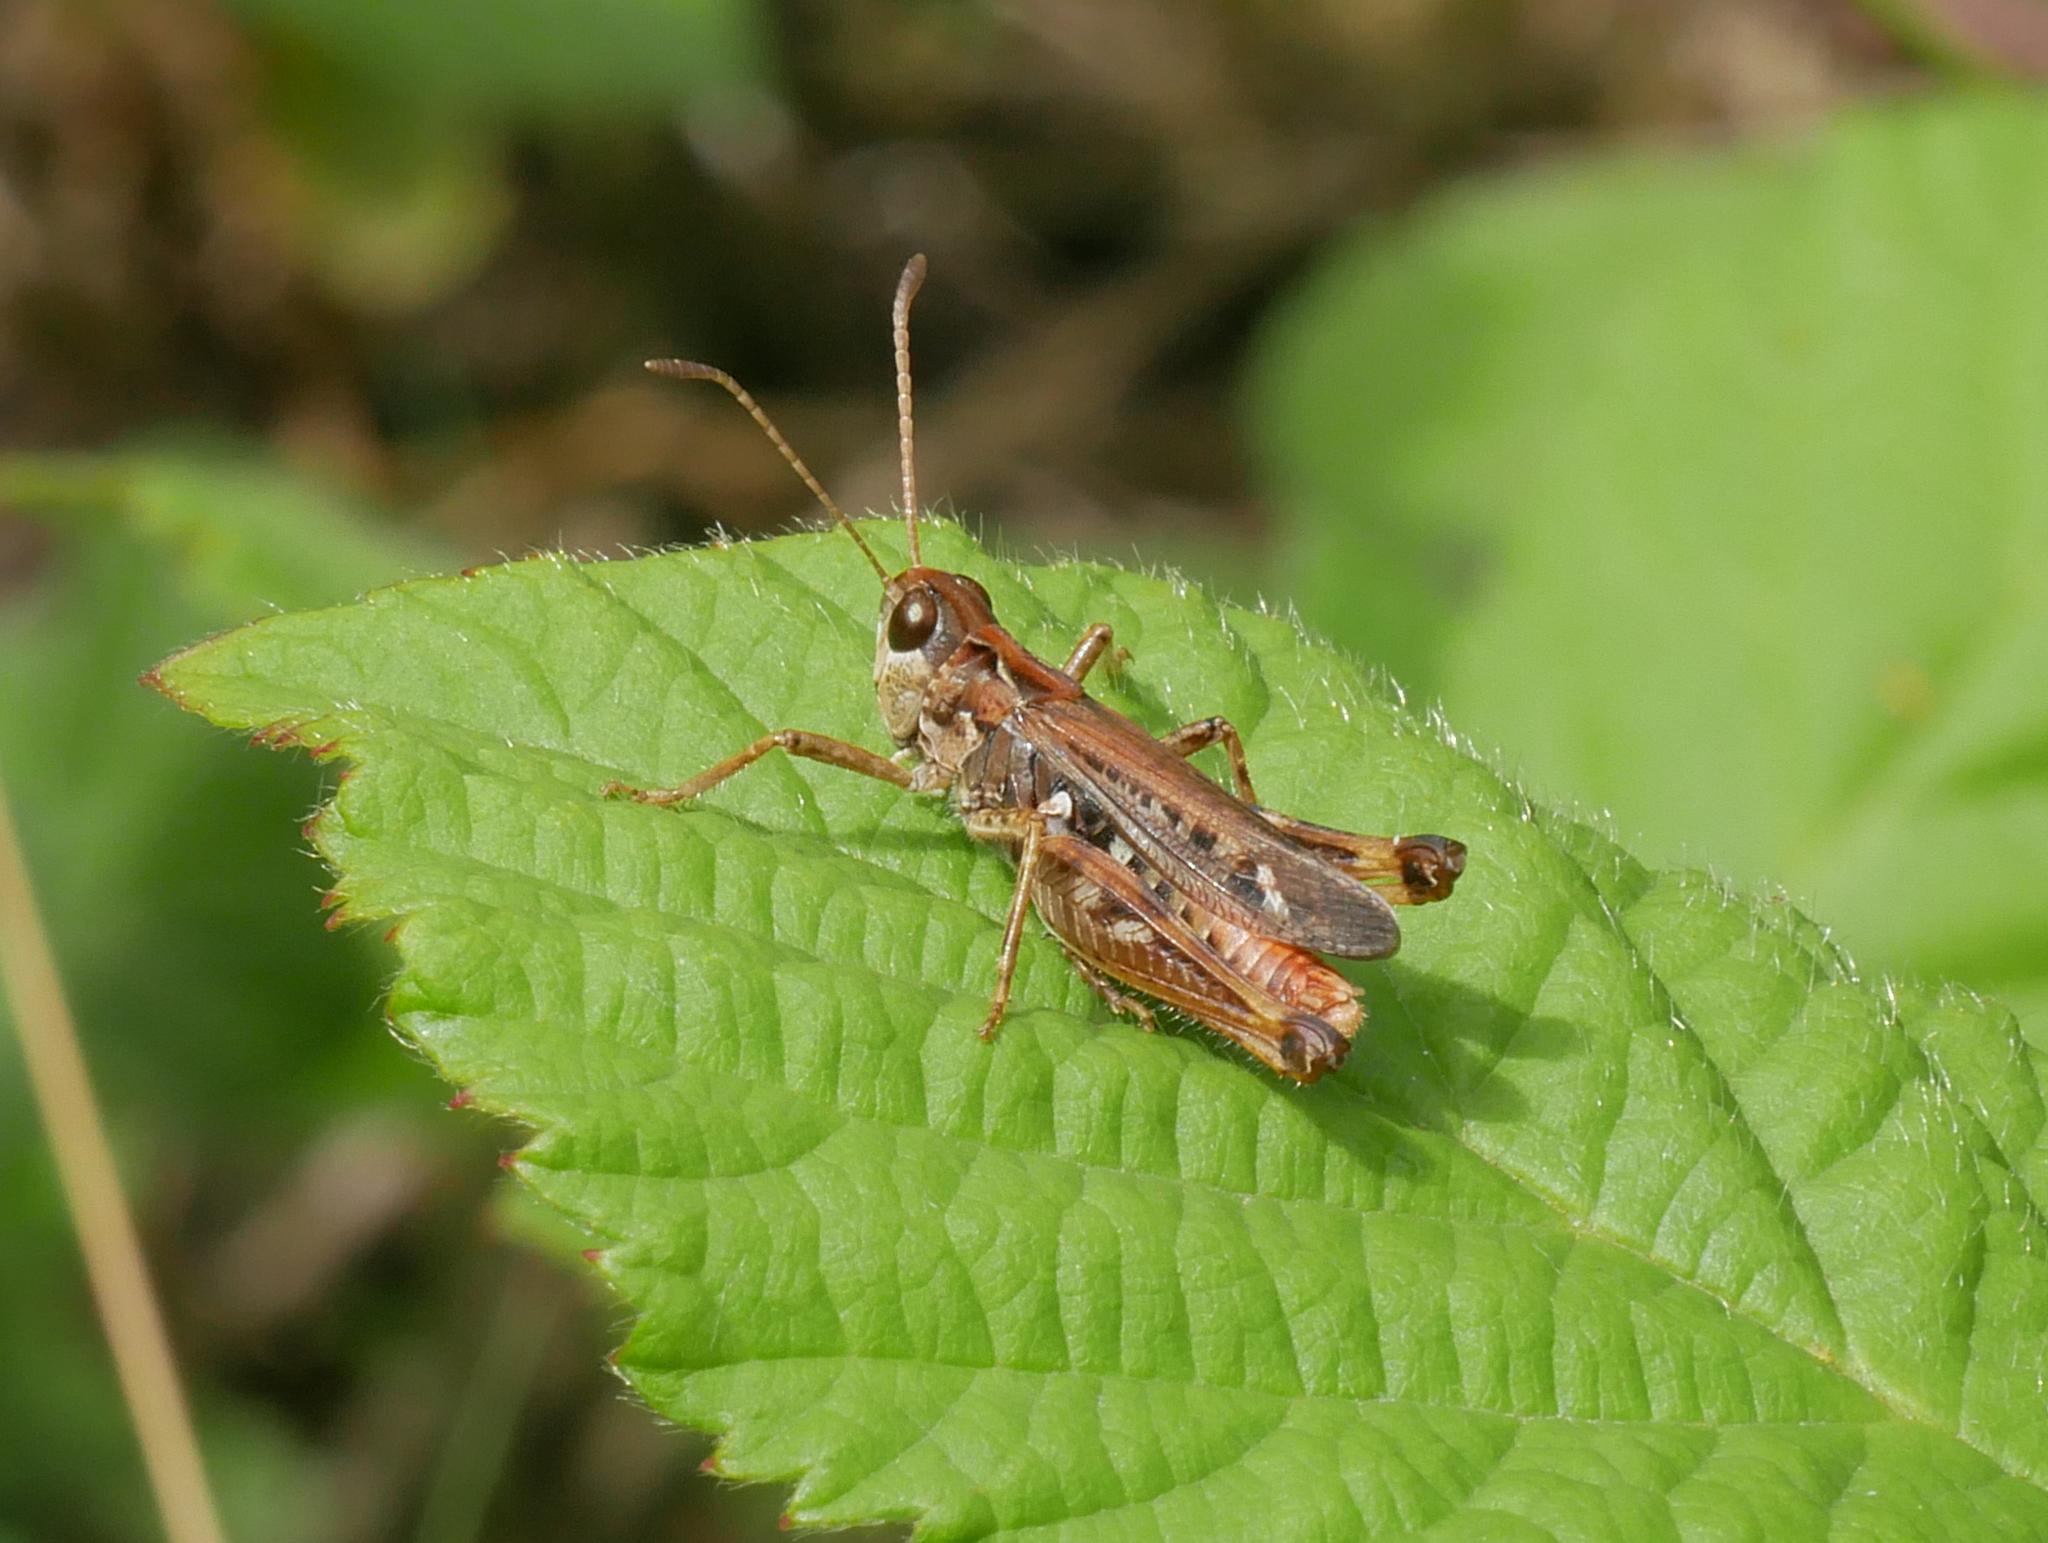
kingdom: Animalia
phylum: Arthropoda
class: Insecta
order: Orthoptera
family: Acrididae
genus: Myrmeleotettix
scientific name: Myrmeleotettix maculatus
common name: Mottled grasshopper
